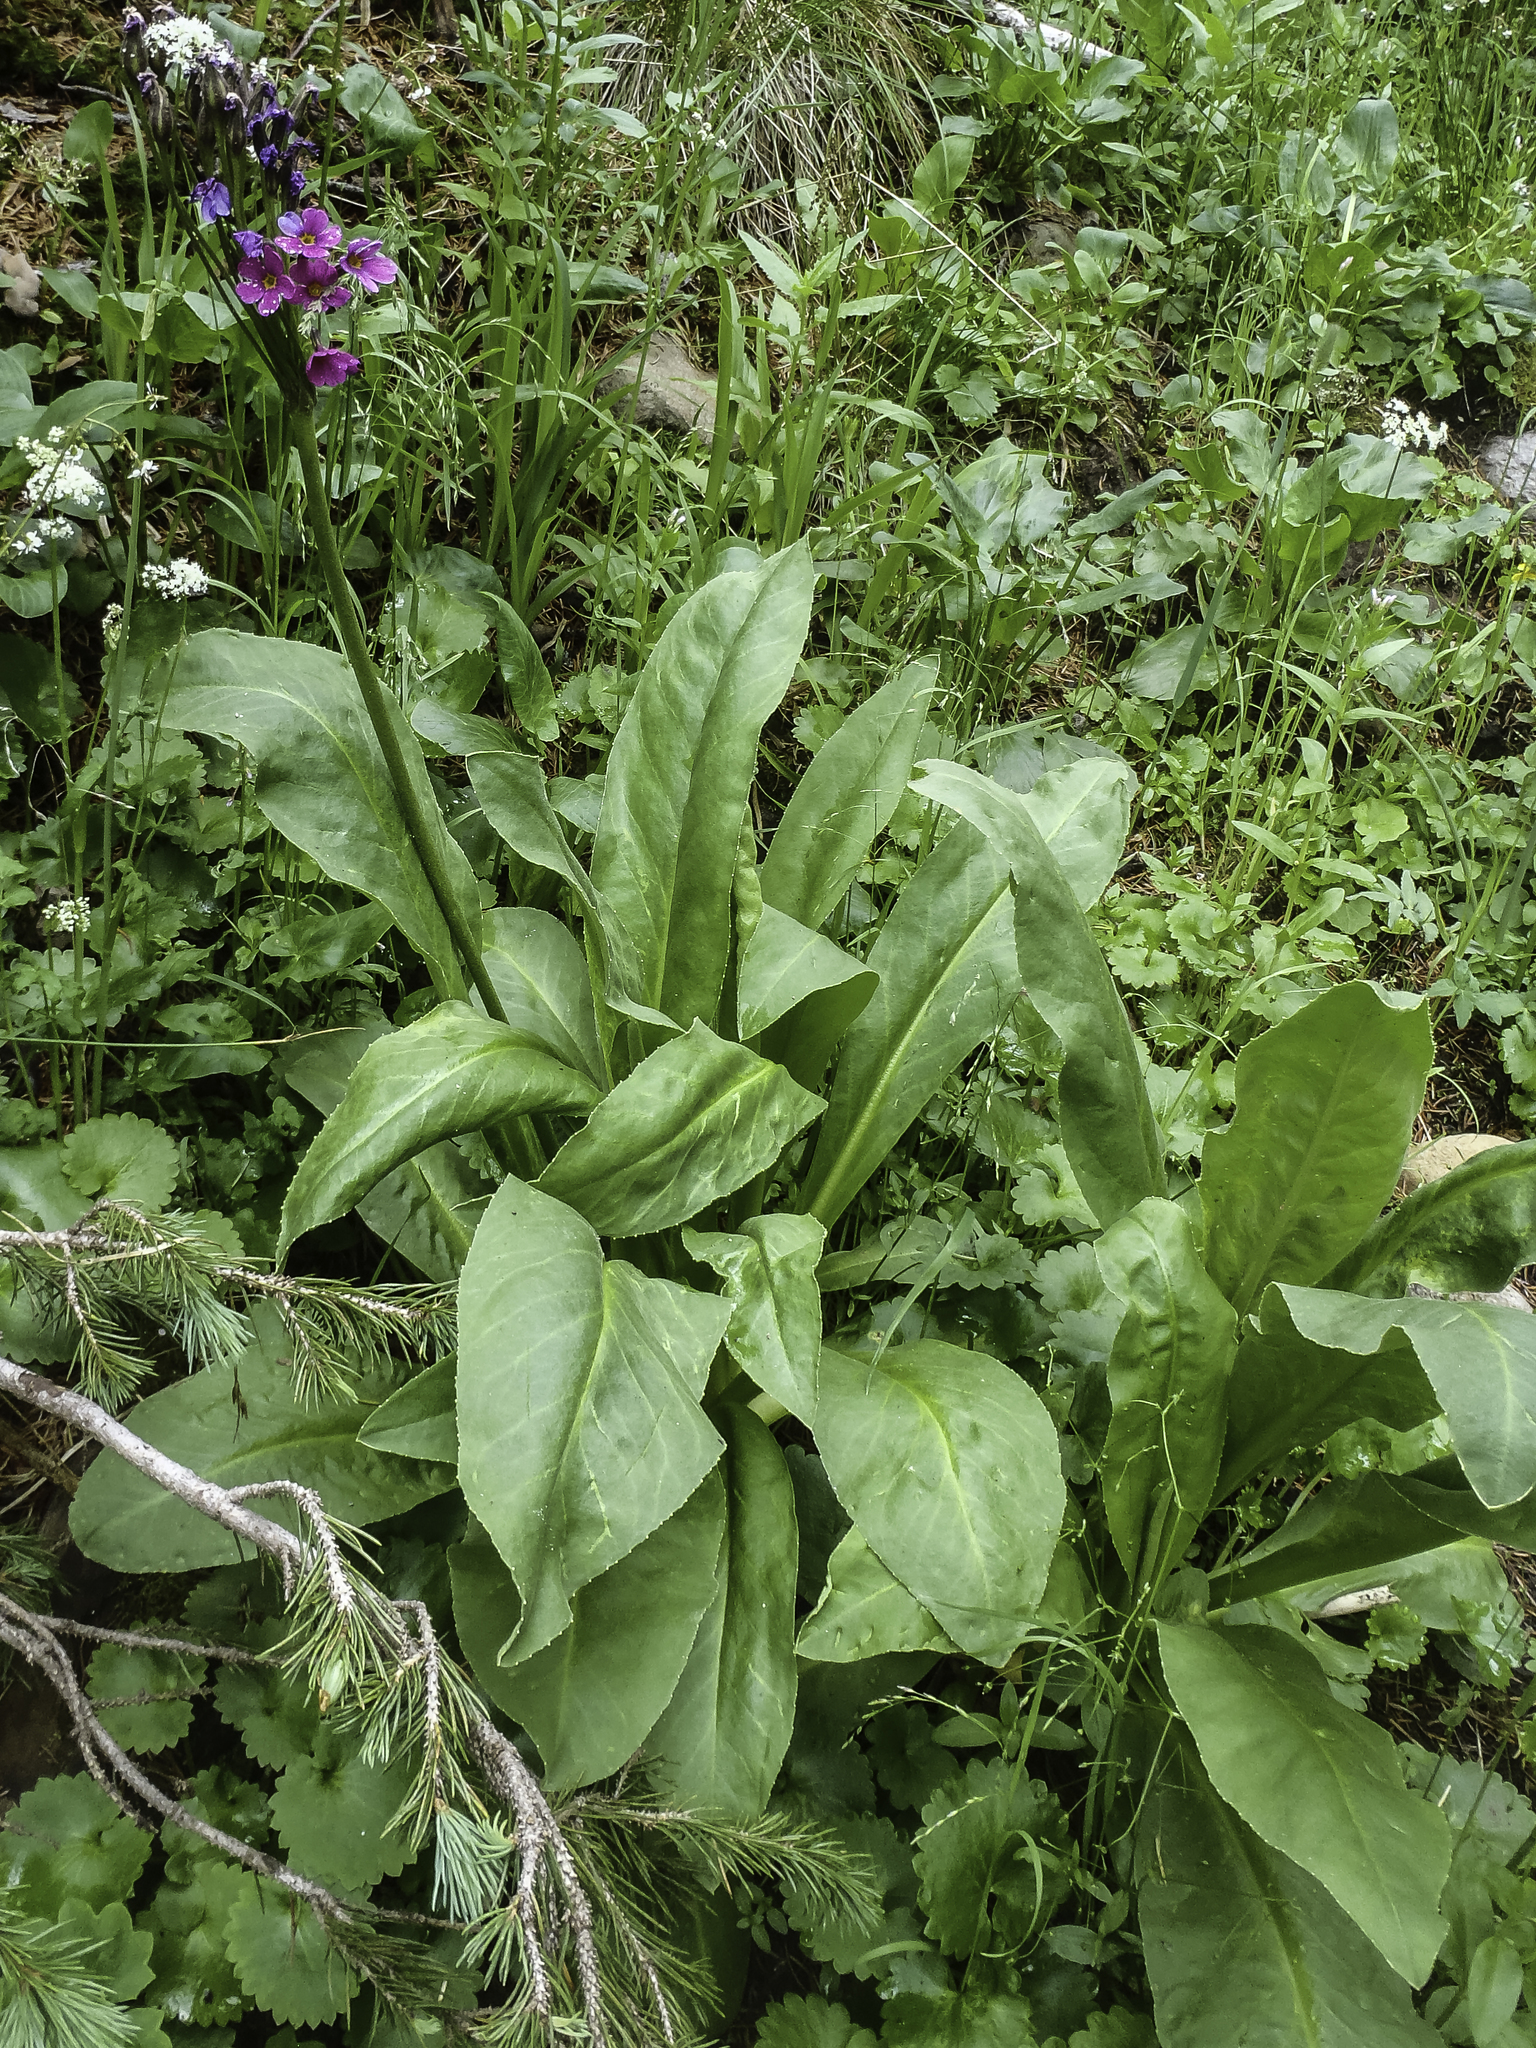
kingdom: Plantae
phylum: Tracheophyta
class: Magnoliopsida
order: Ericales
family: Primulaceae
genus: Primula
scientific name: Primula parryi
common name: Parry's primrose
